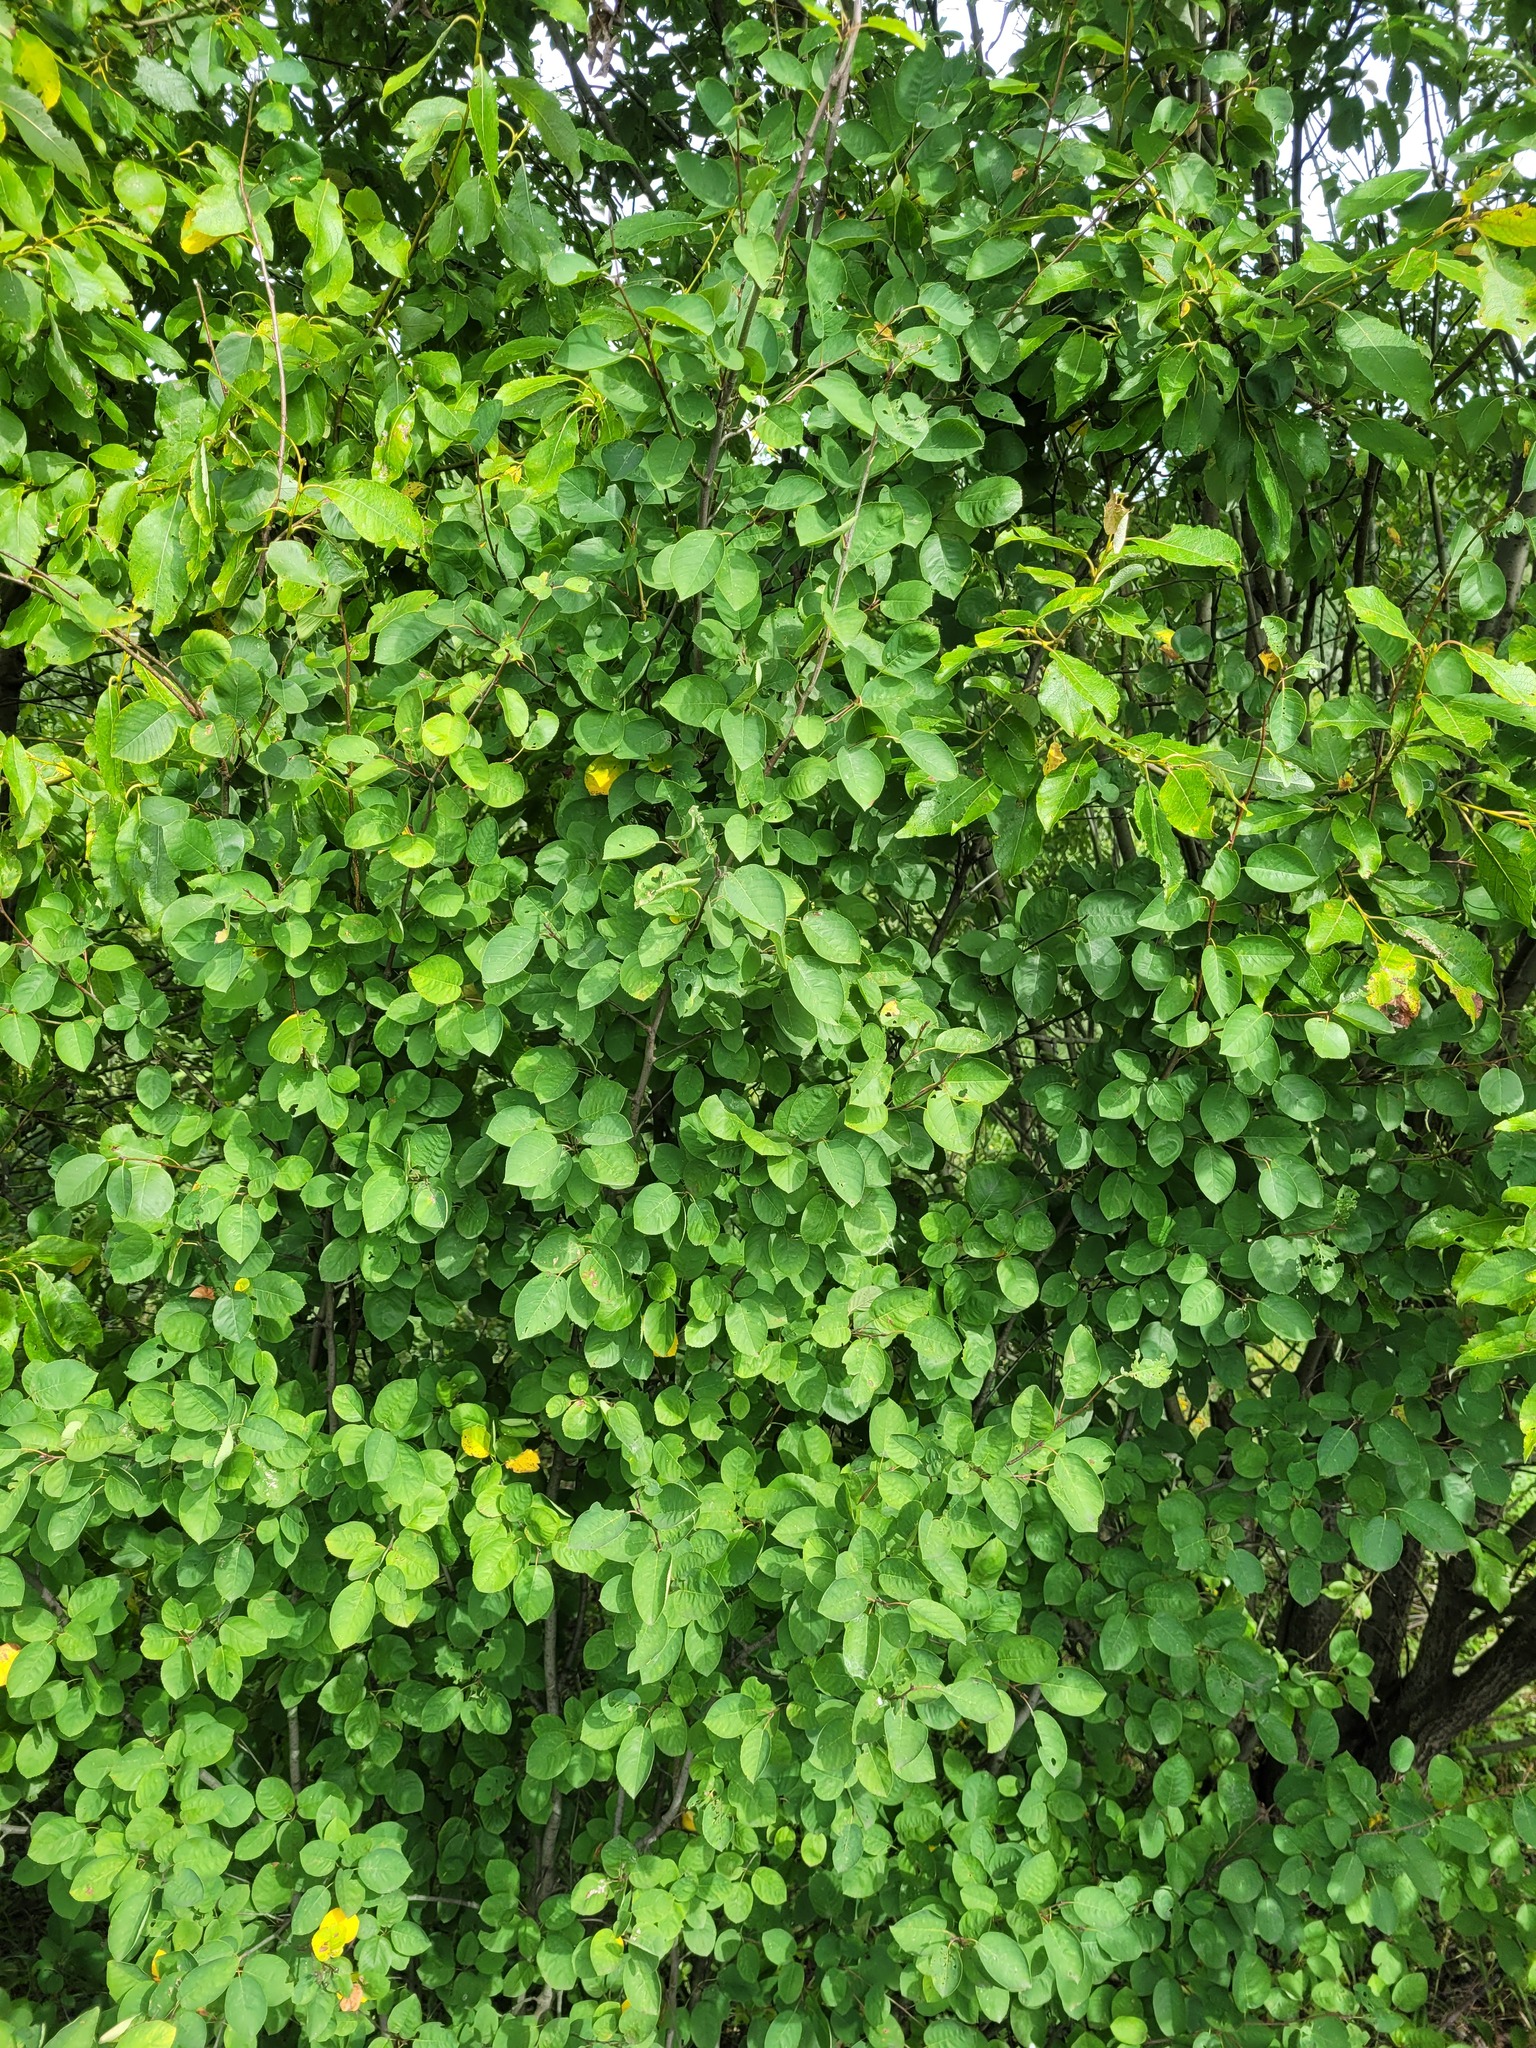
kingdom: Plantae
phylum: Tracheophyta
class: Magnoliopsida
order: Rosales
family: Rosaceae
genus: Amelanchier
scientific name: Amelanchier
